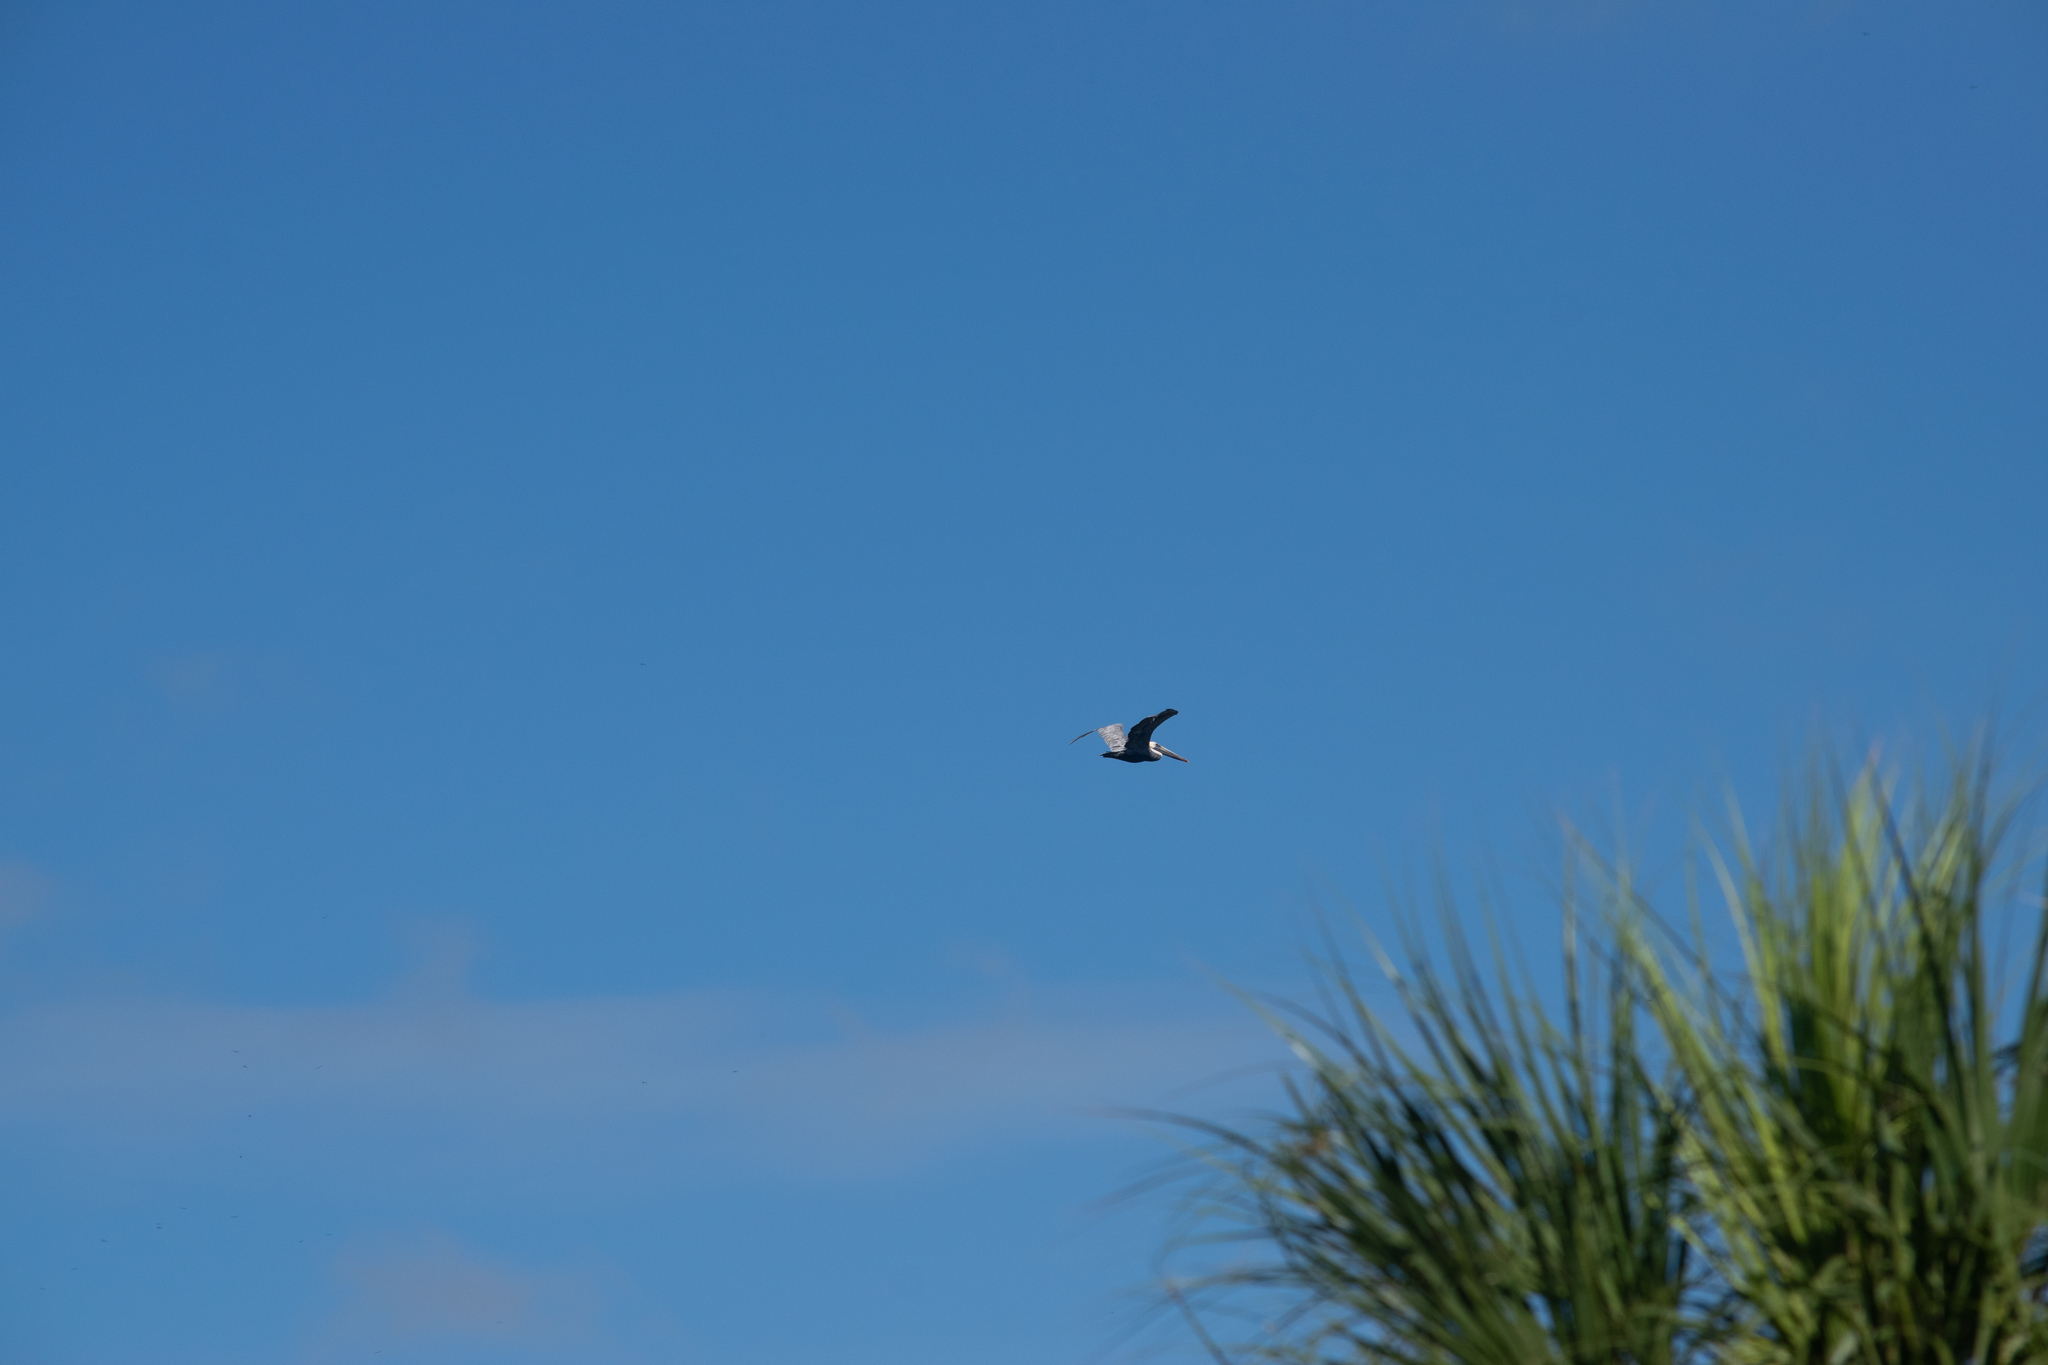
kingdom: Animalia
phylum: Chordata
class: Aves
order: Pelecaniformes
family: Pelecanidae
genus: Pelecanus
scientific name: Pelecanus occidentalis
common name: Brown pelican
